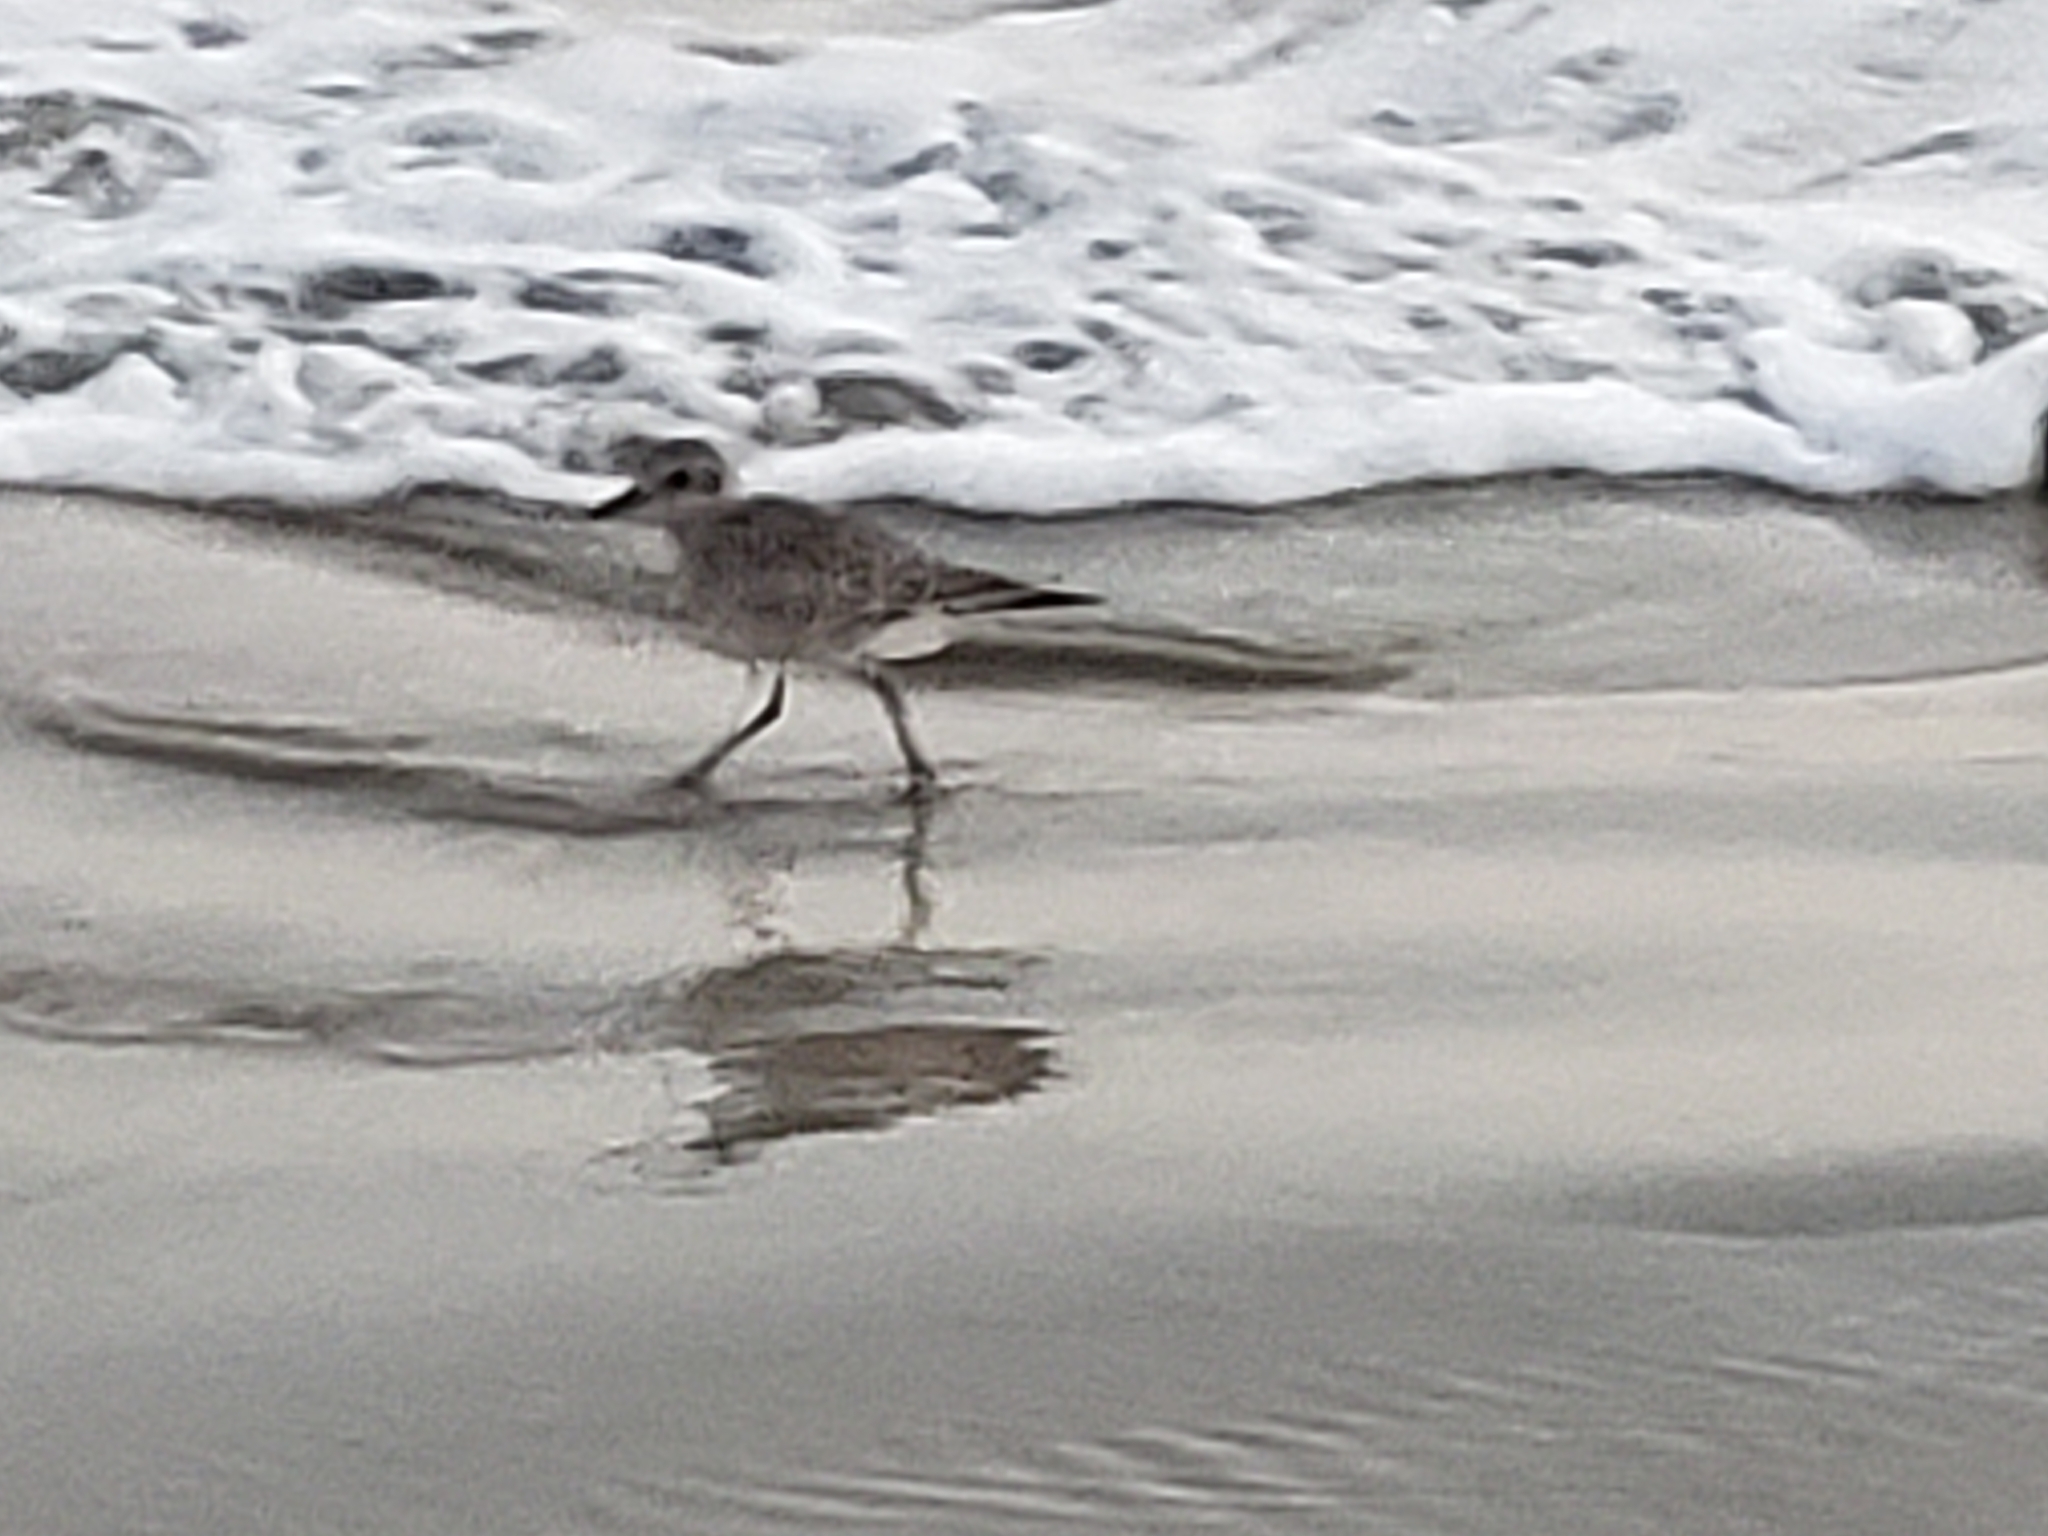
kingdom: Animalia
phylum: Chordata
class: Aves
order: Charadriiformes
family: Charadriidae
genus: Pluvialis
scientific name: Pluvialis squatarola
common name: Grey plover
